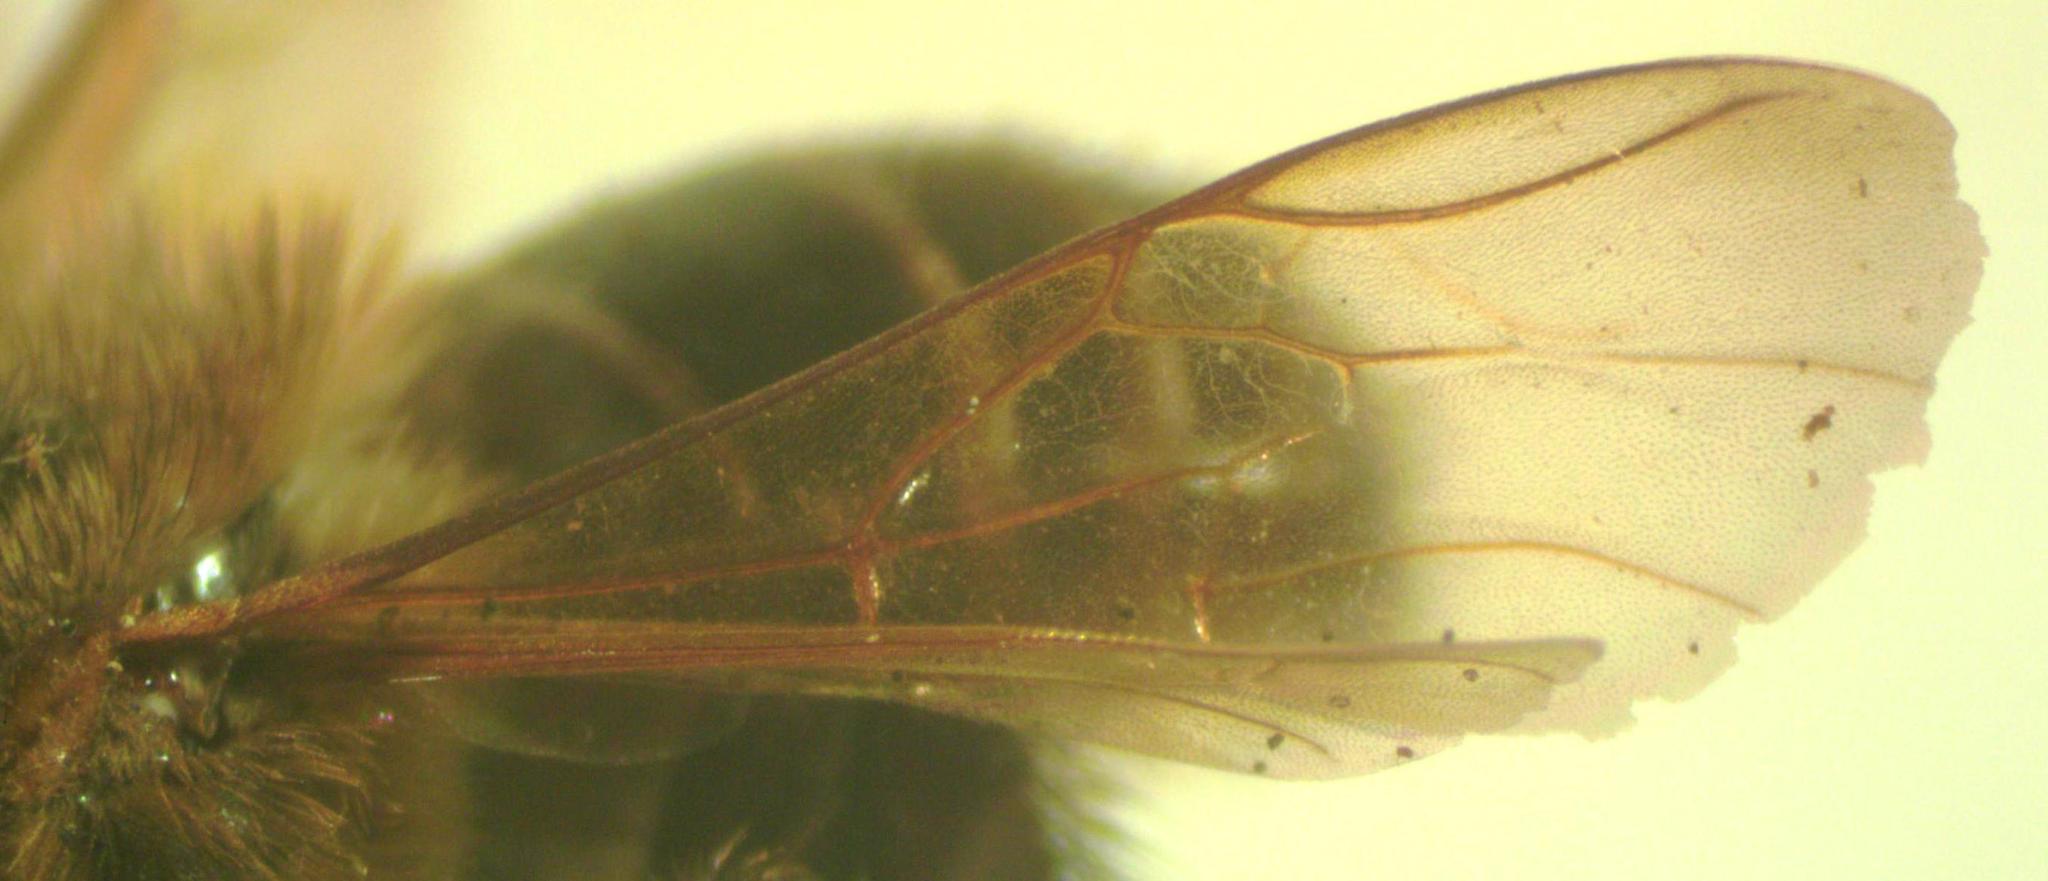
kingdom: Animalia
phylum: Arthropoda
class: Insecta
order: Hymenoptera
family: Apidae
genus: Melipona
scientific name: Melipona costaricensis
